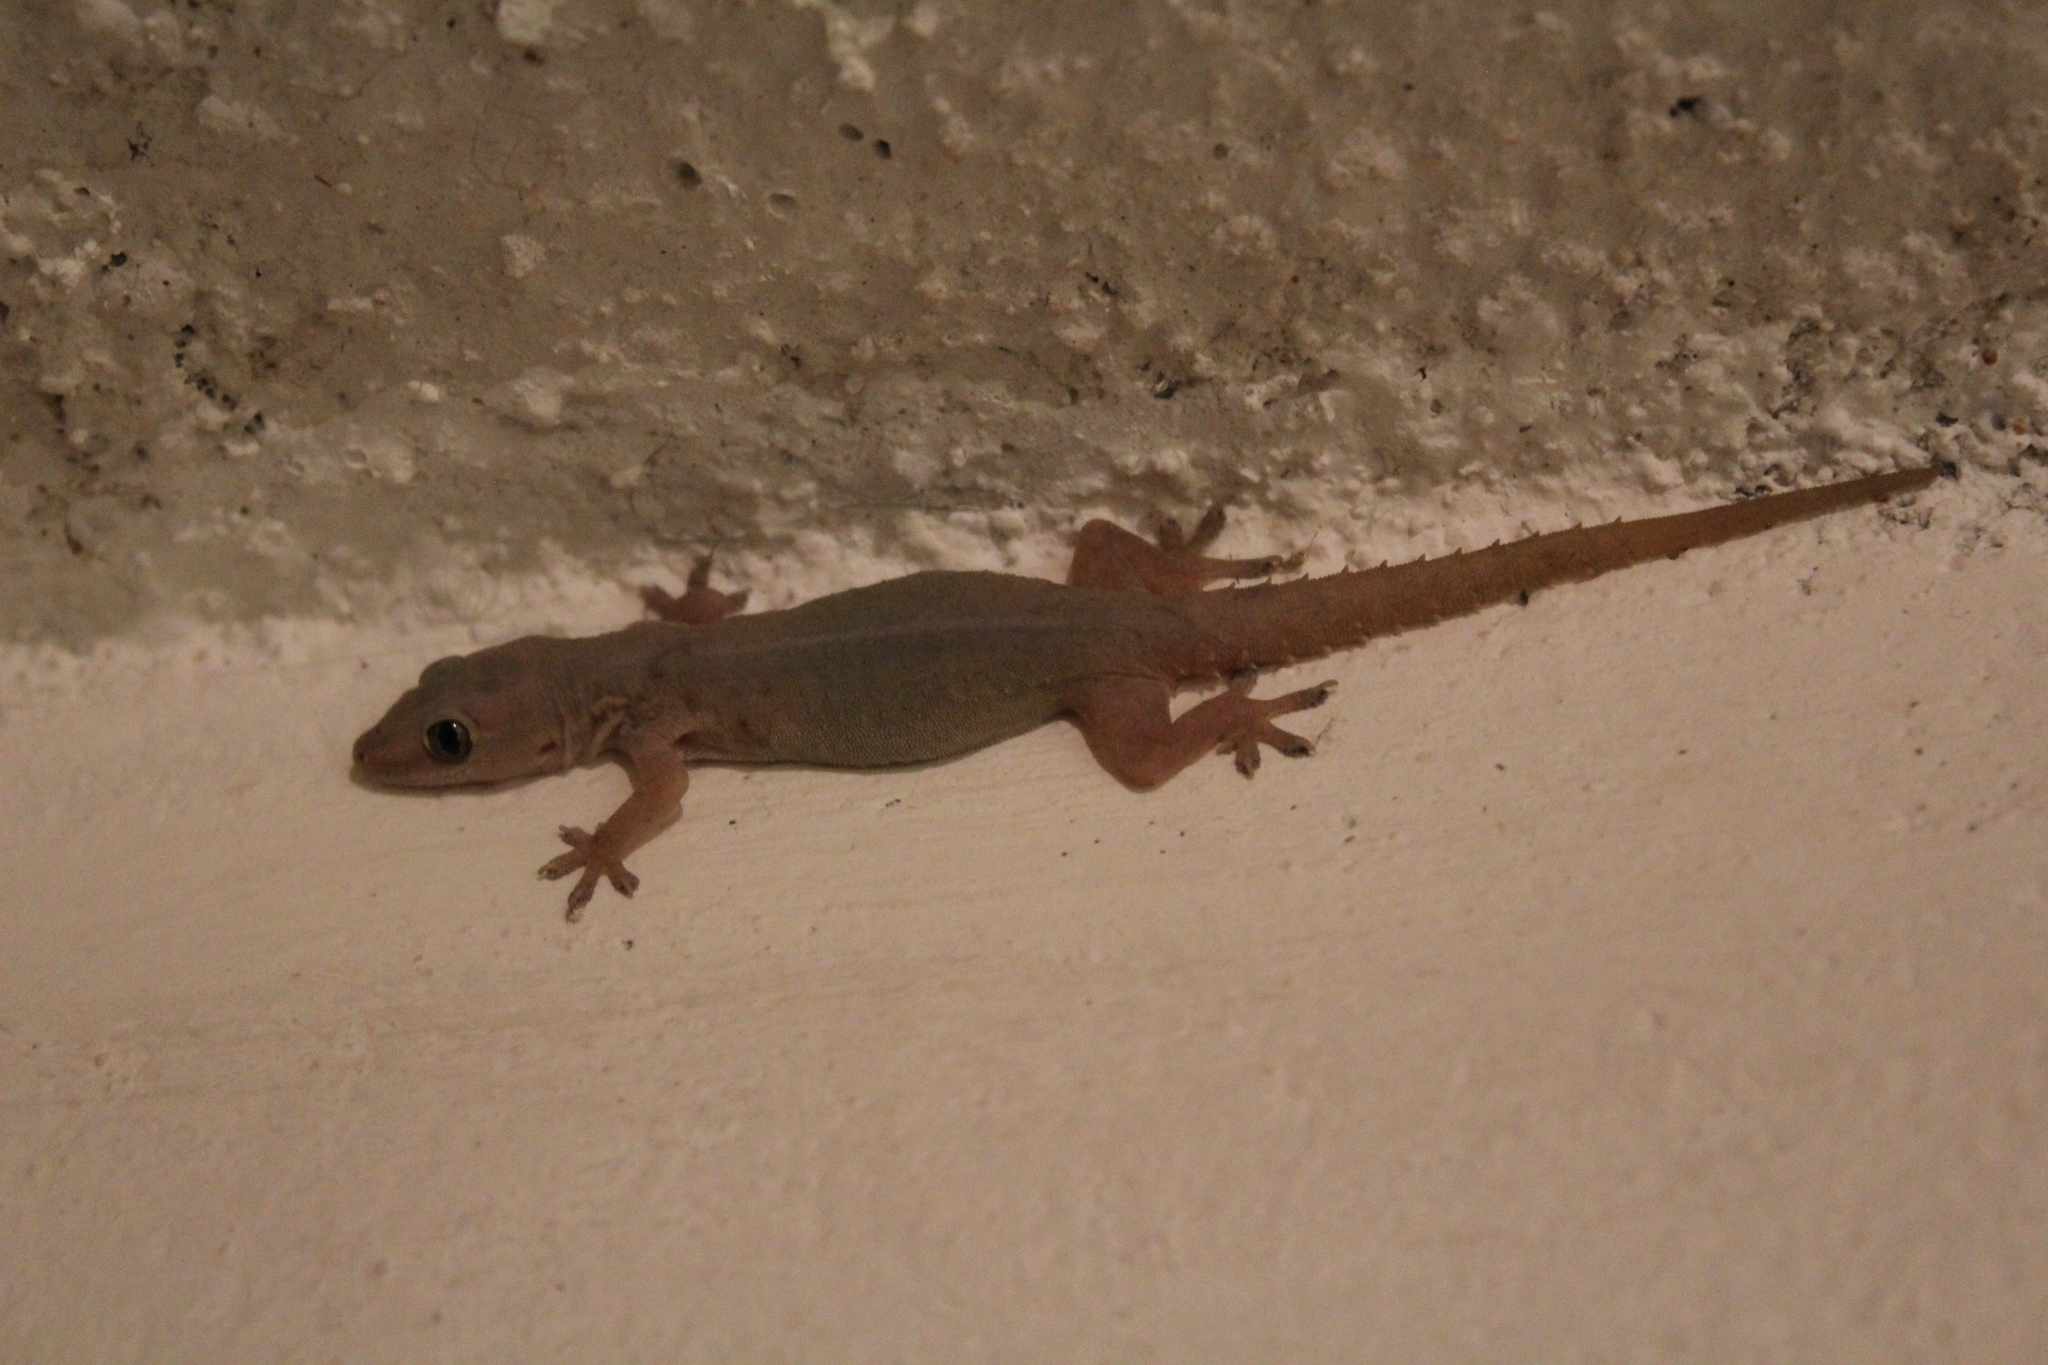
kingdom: Animalia
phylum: Chordata
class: Squamata
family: Gekkonidae
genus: Hemidactylus
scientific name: Hemidactylus frenatus
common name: Common house gecko
